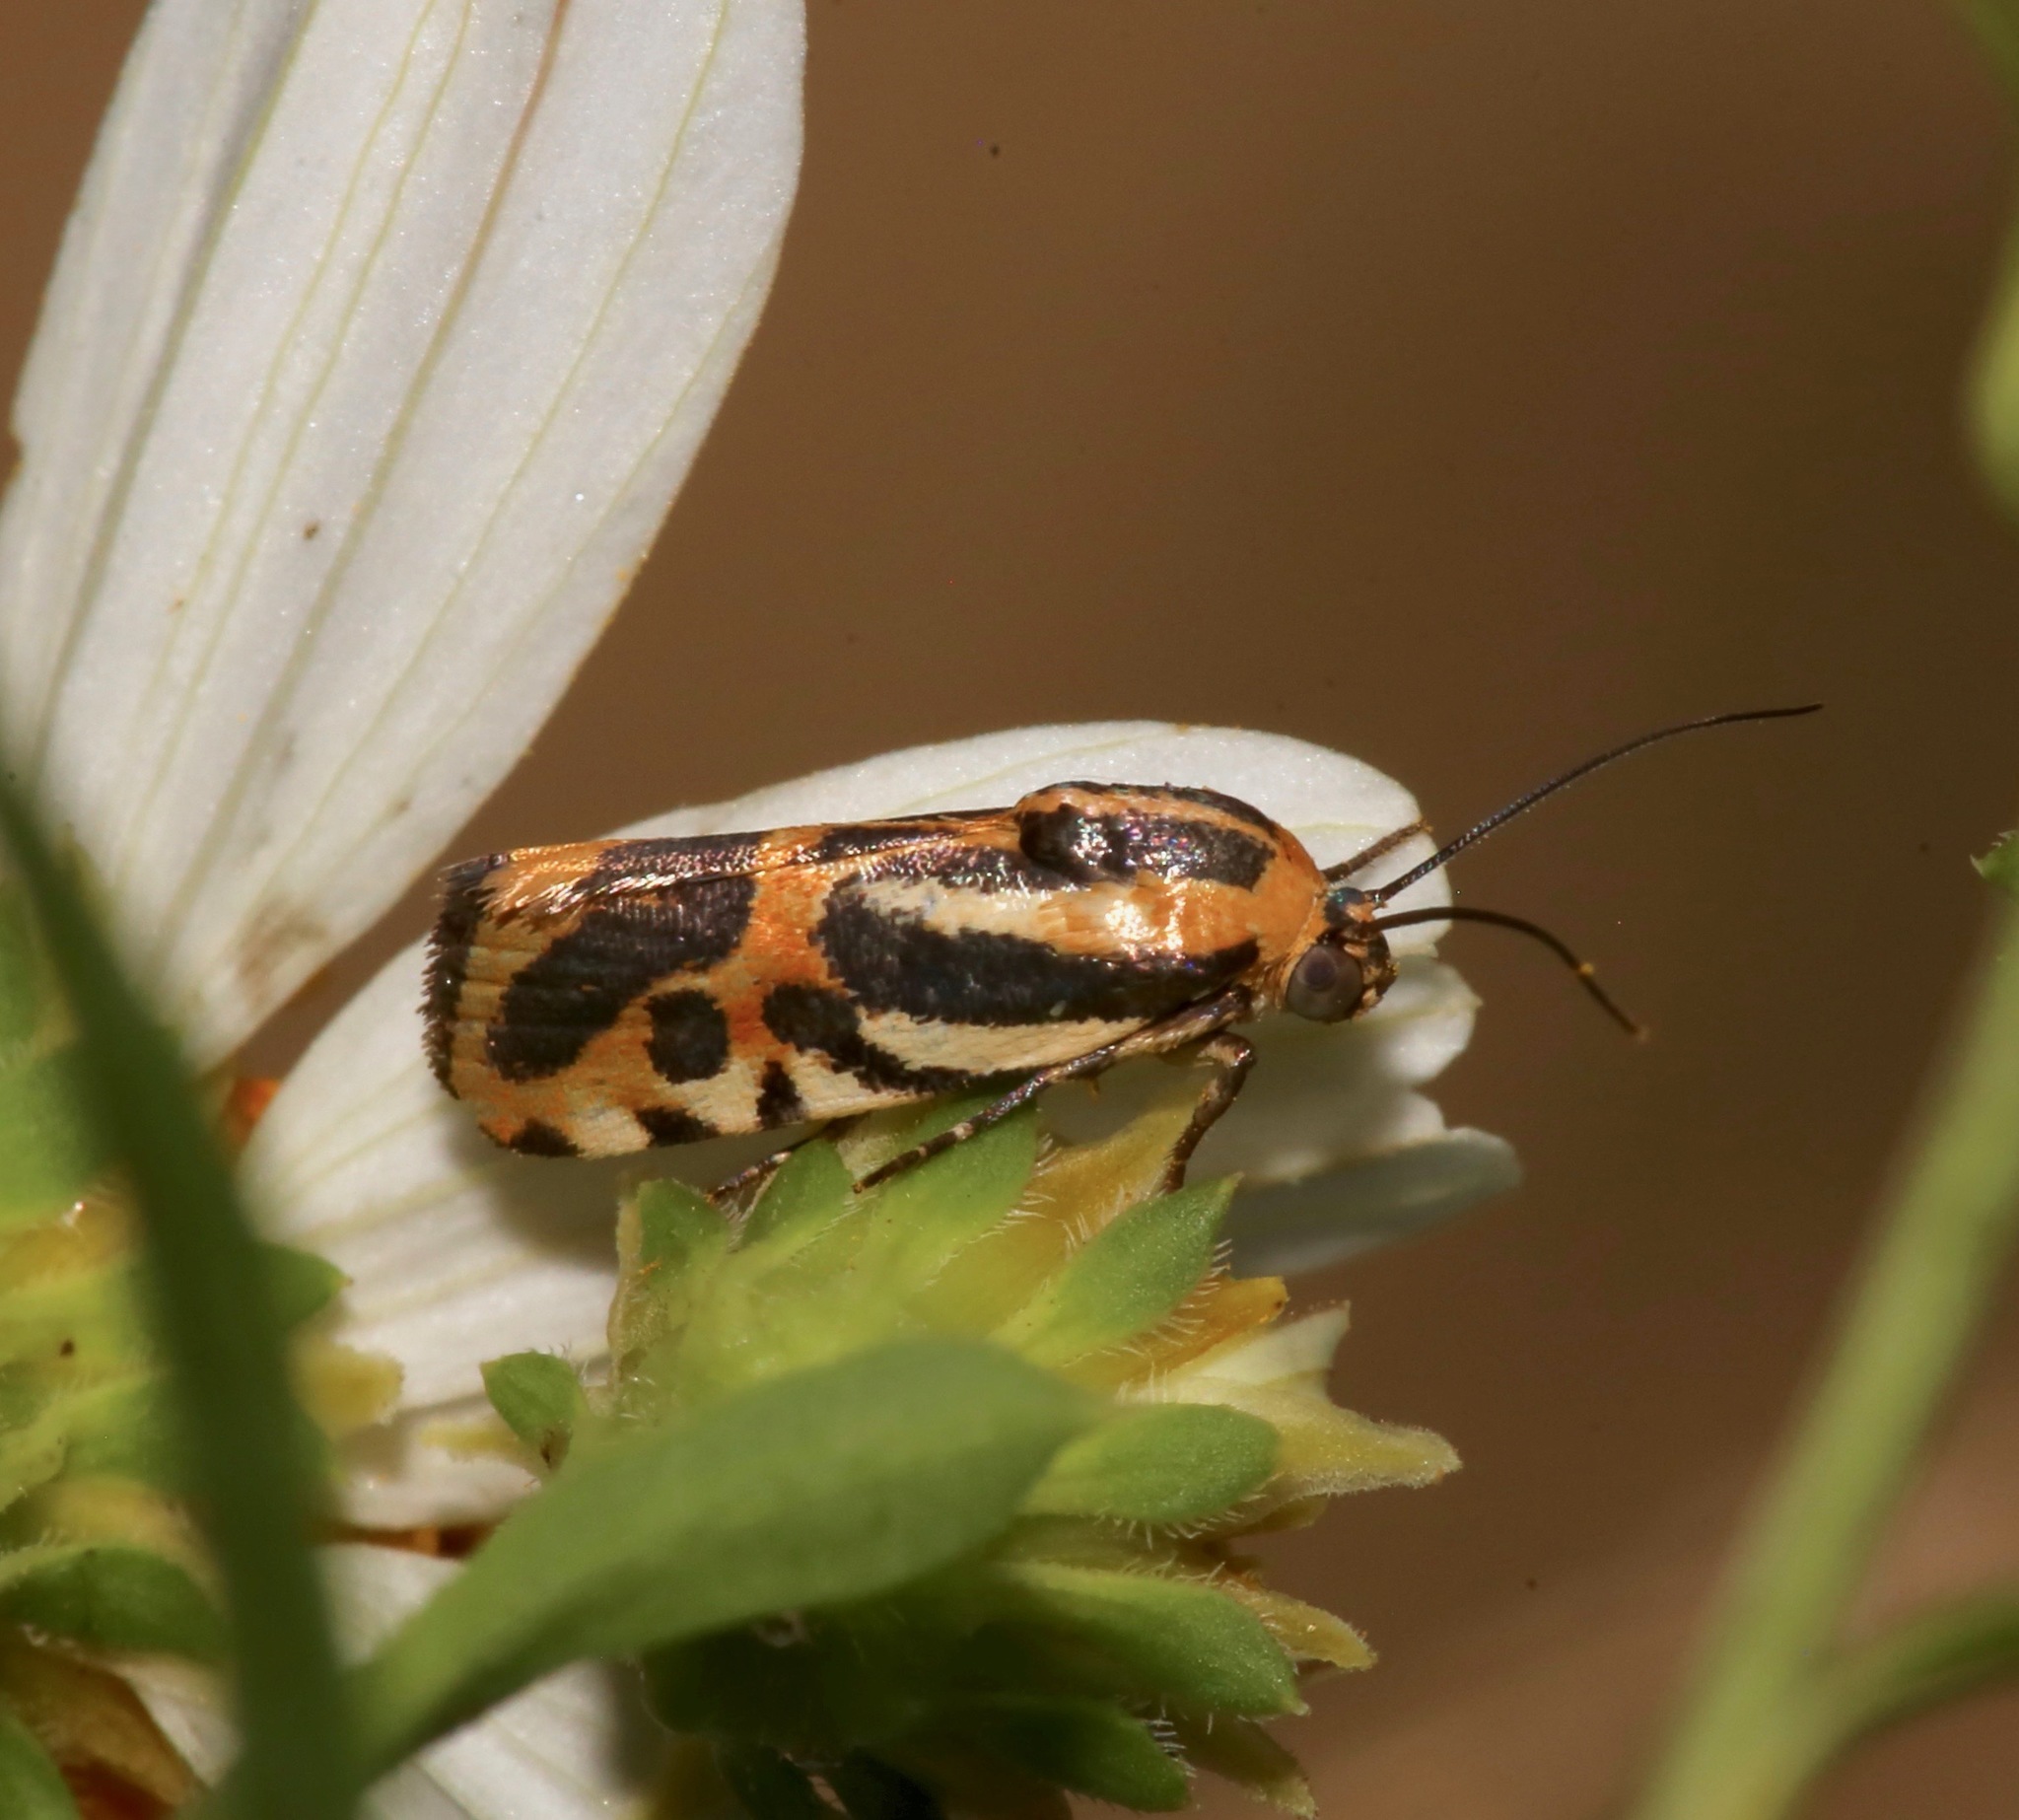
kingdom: Animalia
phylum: Arthropoda
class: Insecta
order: Lepidoptera
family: Noctuidae
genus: Acontia
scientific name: Acontia onagrus
